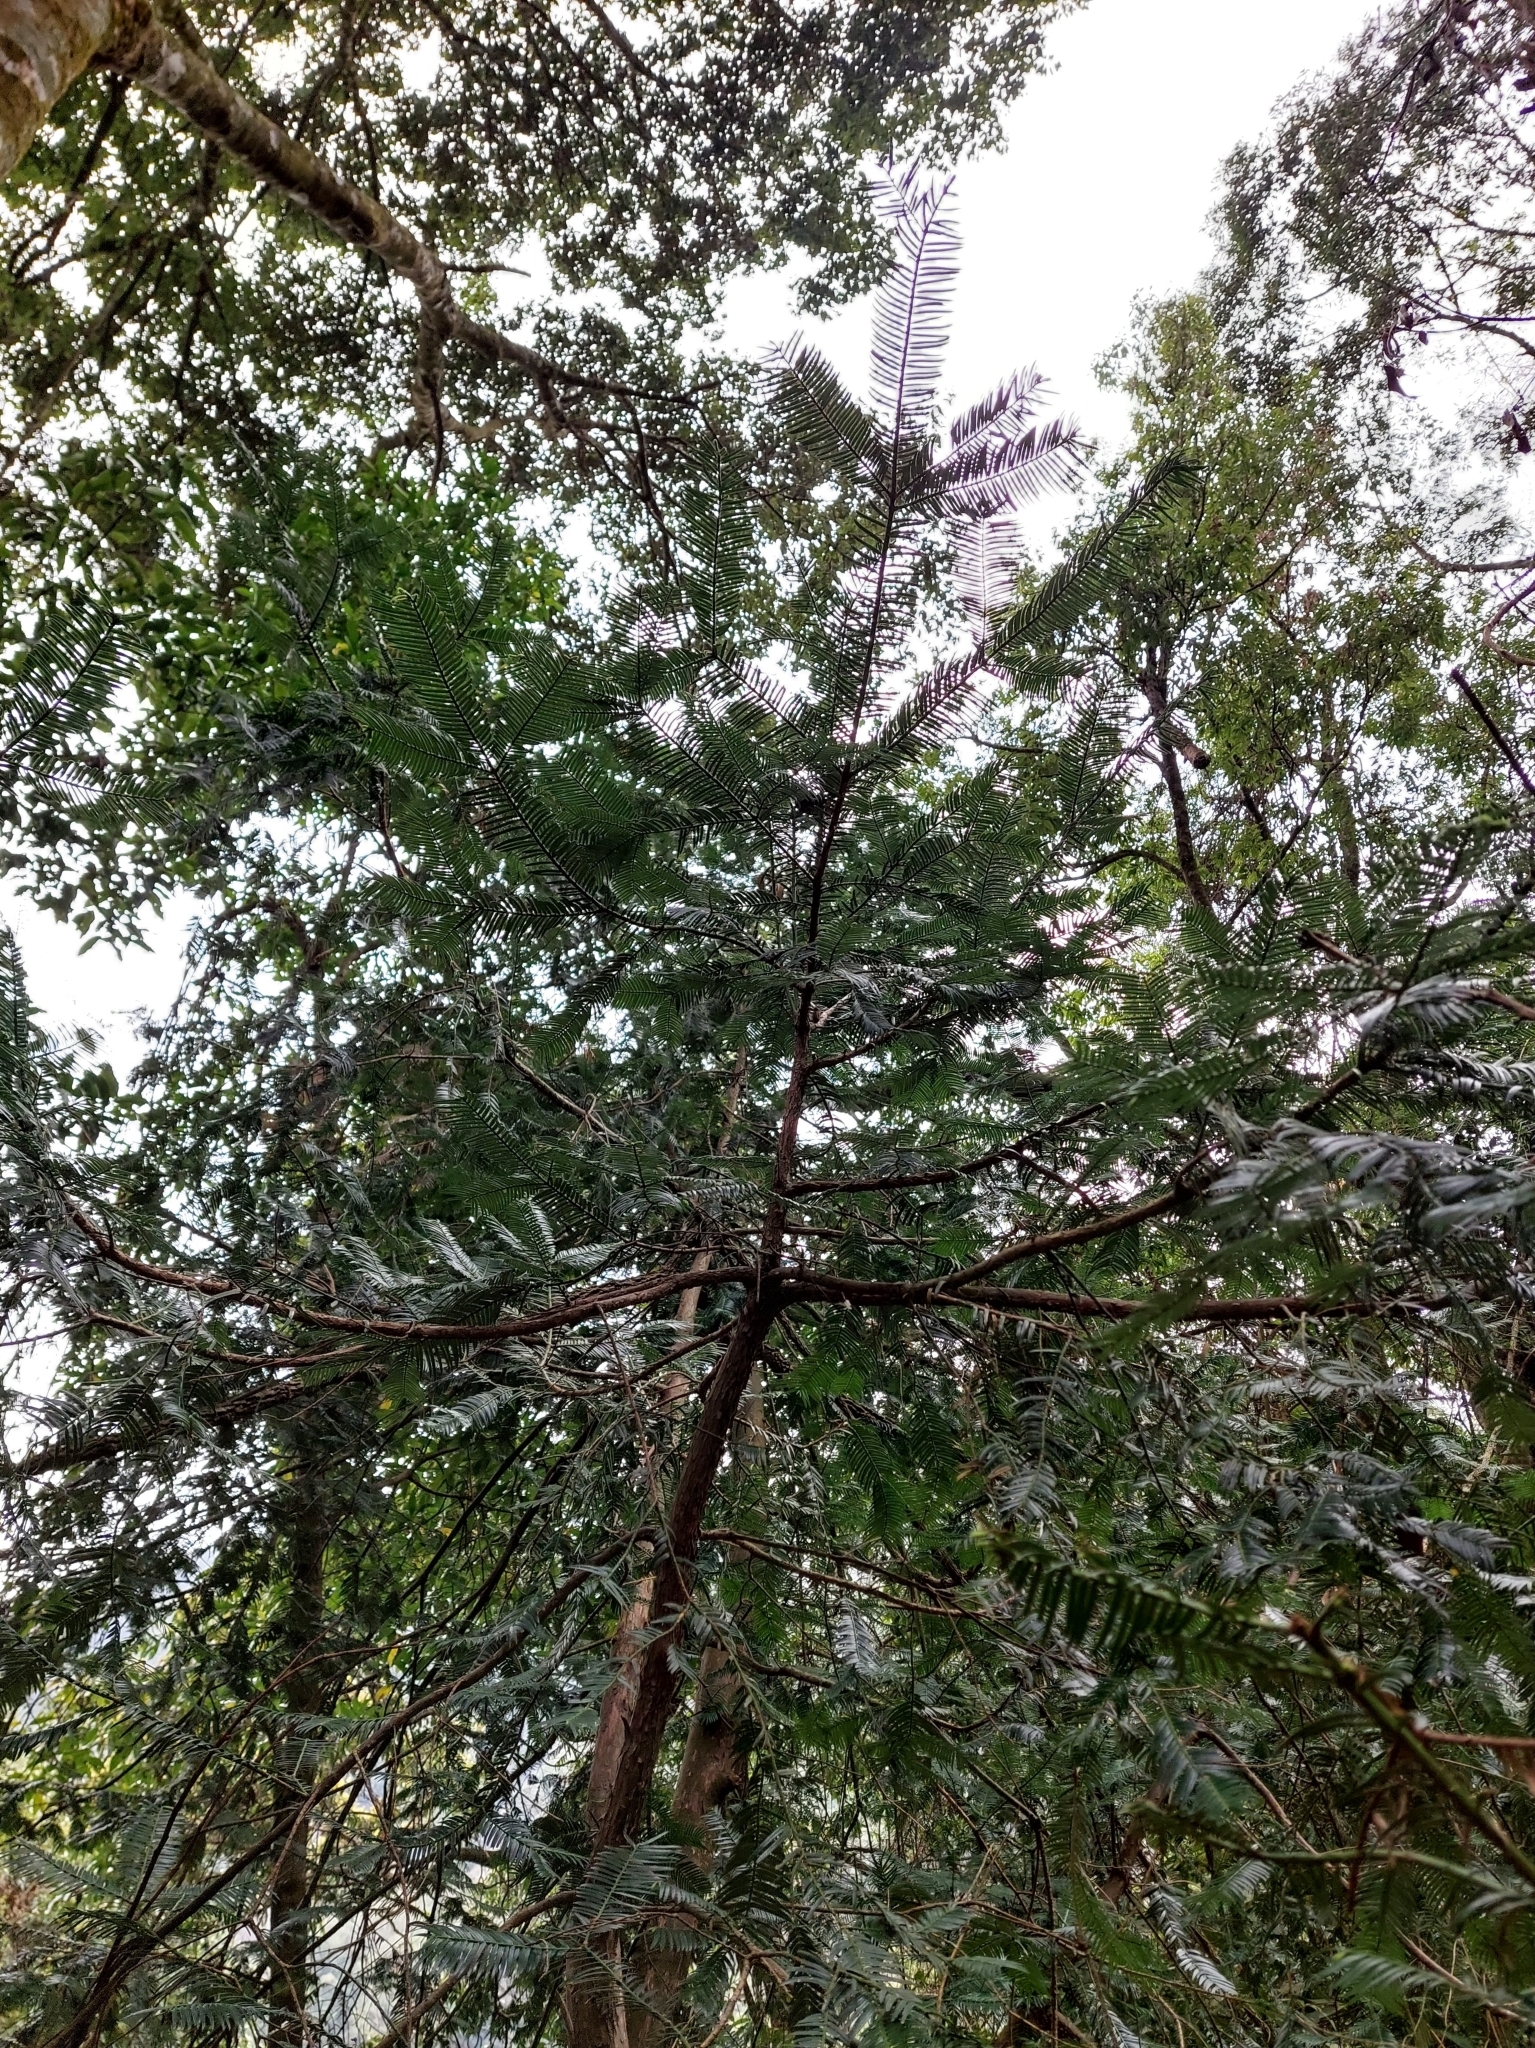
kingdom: Plantae
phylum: Tracheophyta
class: Pinopsida
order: Pinales
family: Cephalotaxaceae
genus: Cephalotaxus
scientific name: Cephalotaxus harringtonii
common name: Harrington's plum yew
